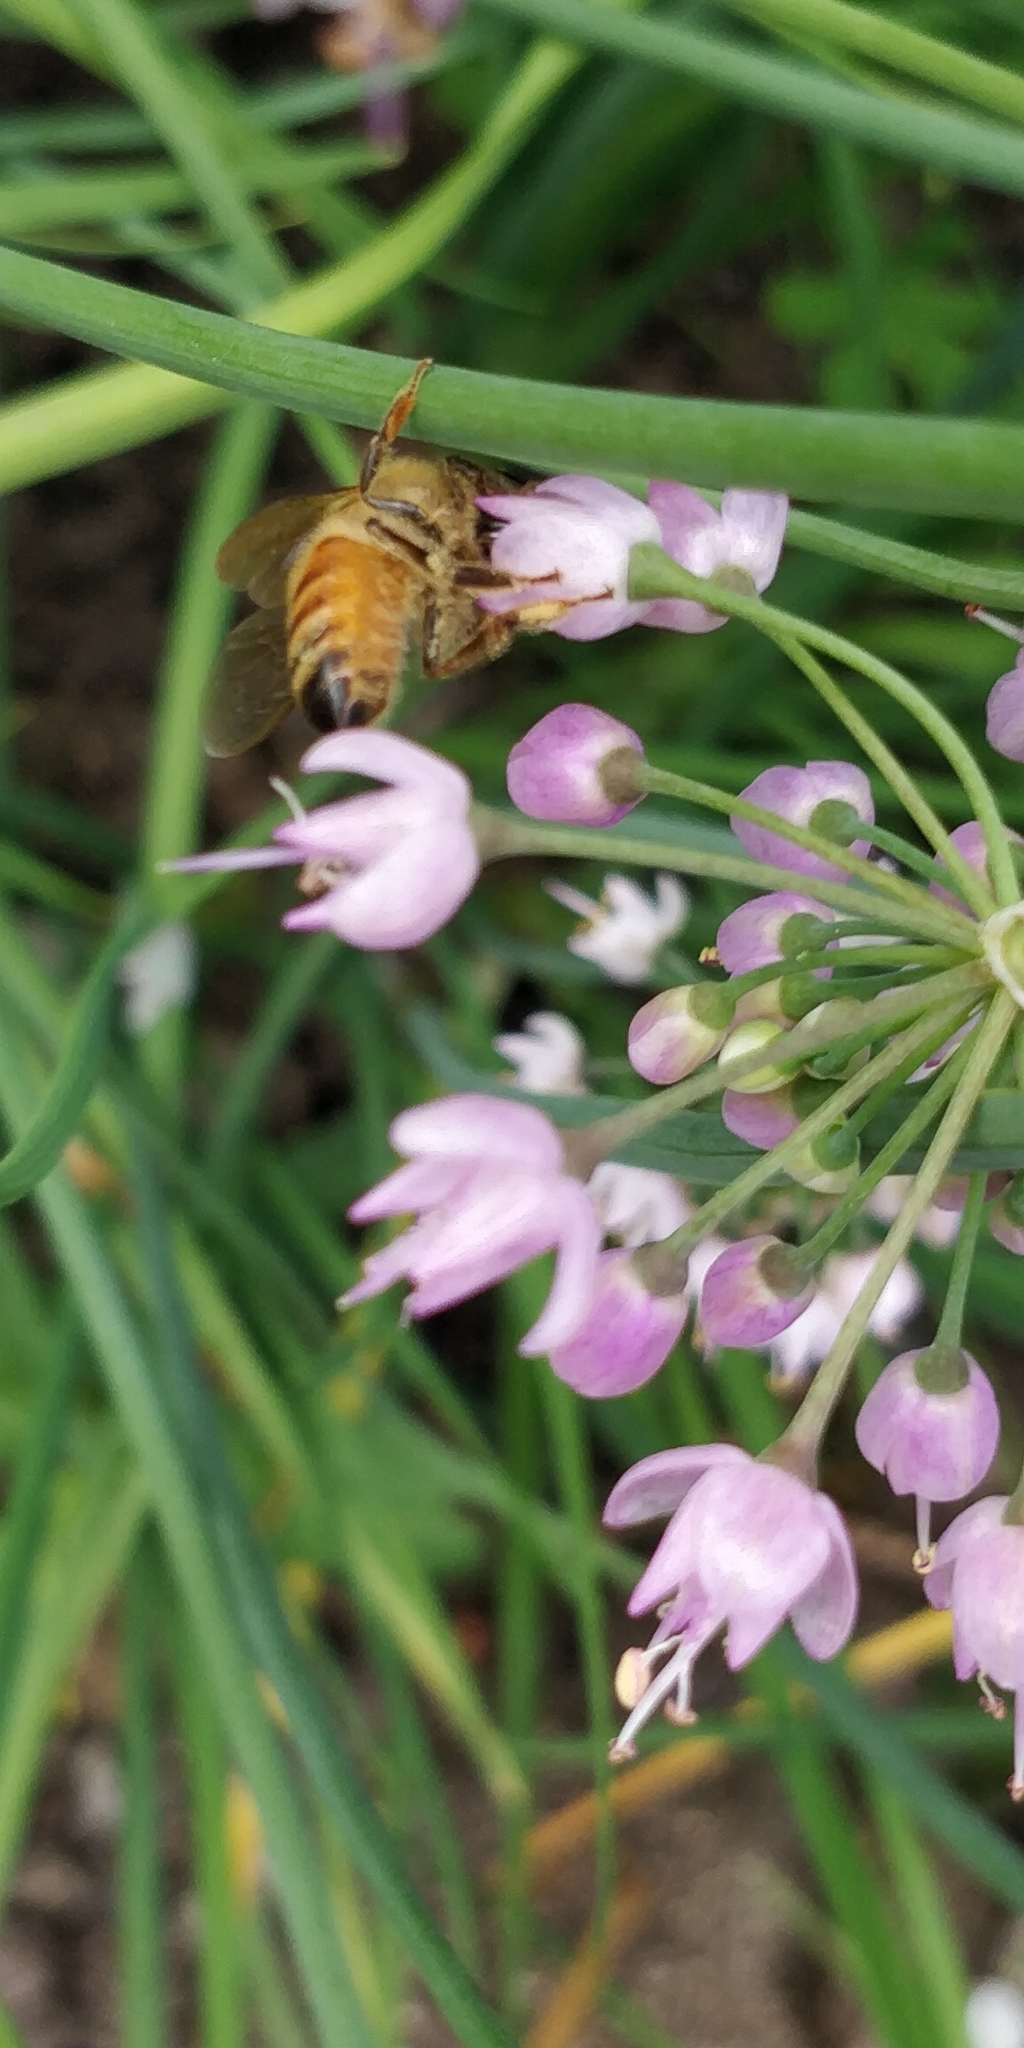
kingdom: Animalia
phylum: Arthropoda
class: Insecta
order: Hymenoptera
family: Apidae
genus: Apis
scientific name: Apis mellifera
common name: Honey bee
